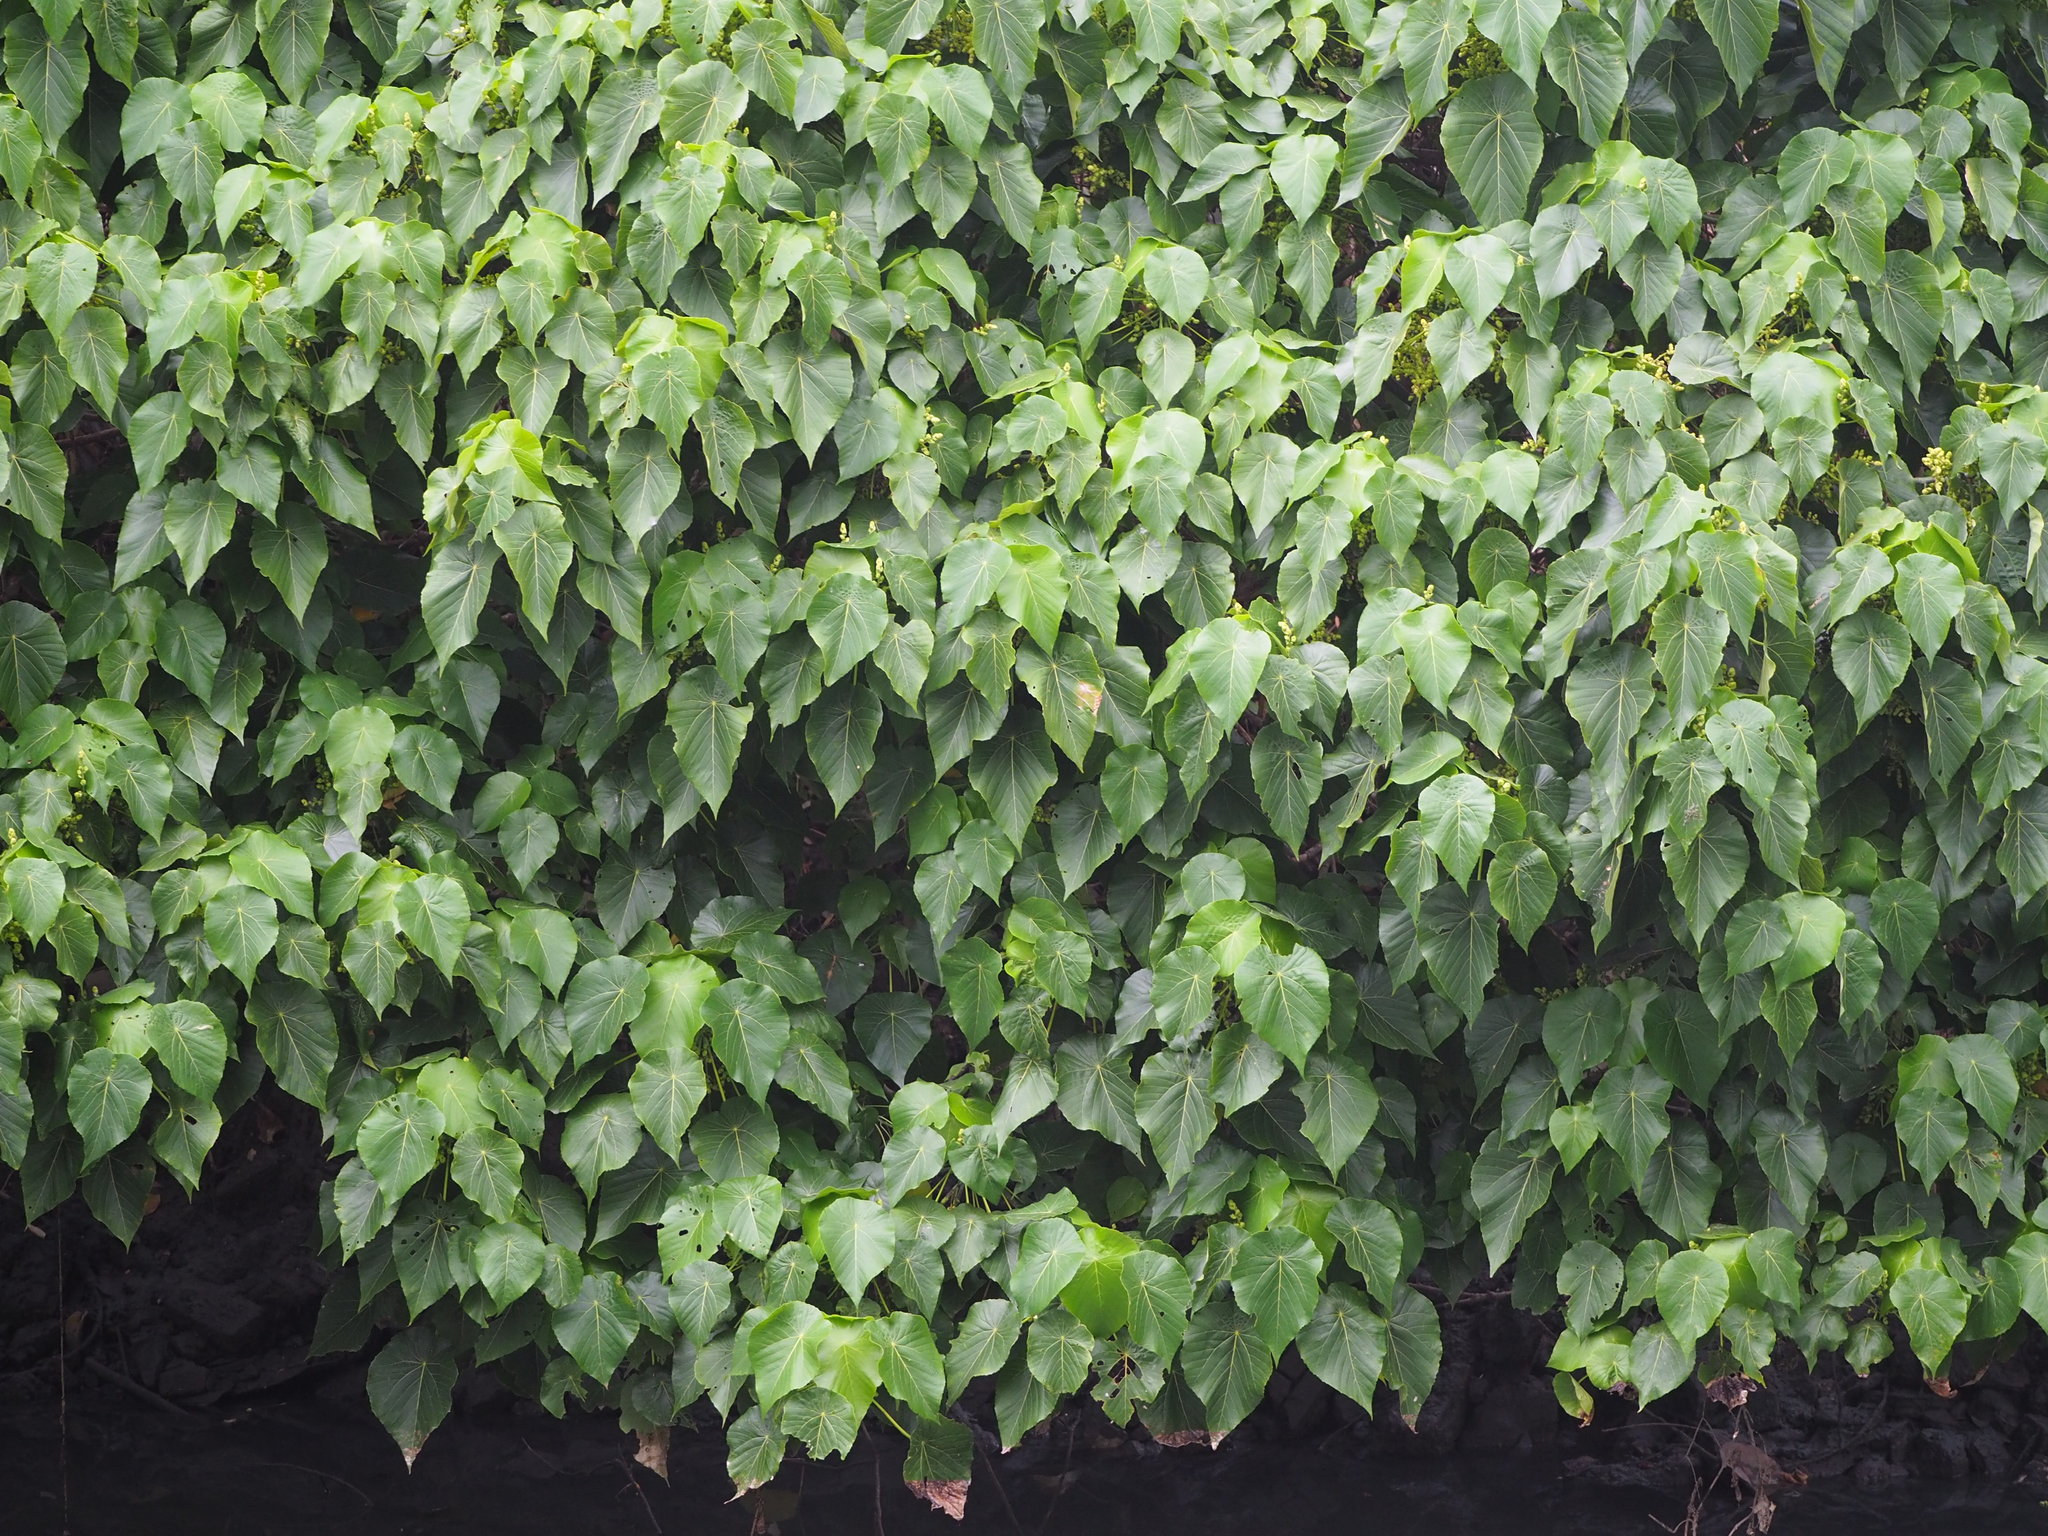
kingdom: Plantae
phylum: Tracheophyta
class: Magnoliopsida
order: Malpighiales
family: Euphorbiaceae
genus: Macaranga
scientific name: Macaranga tanarius
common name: Parasol leaf tree
